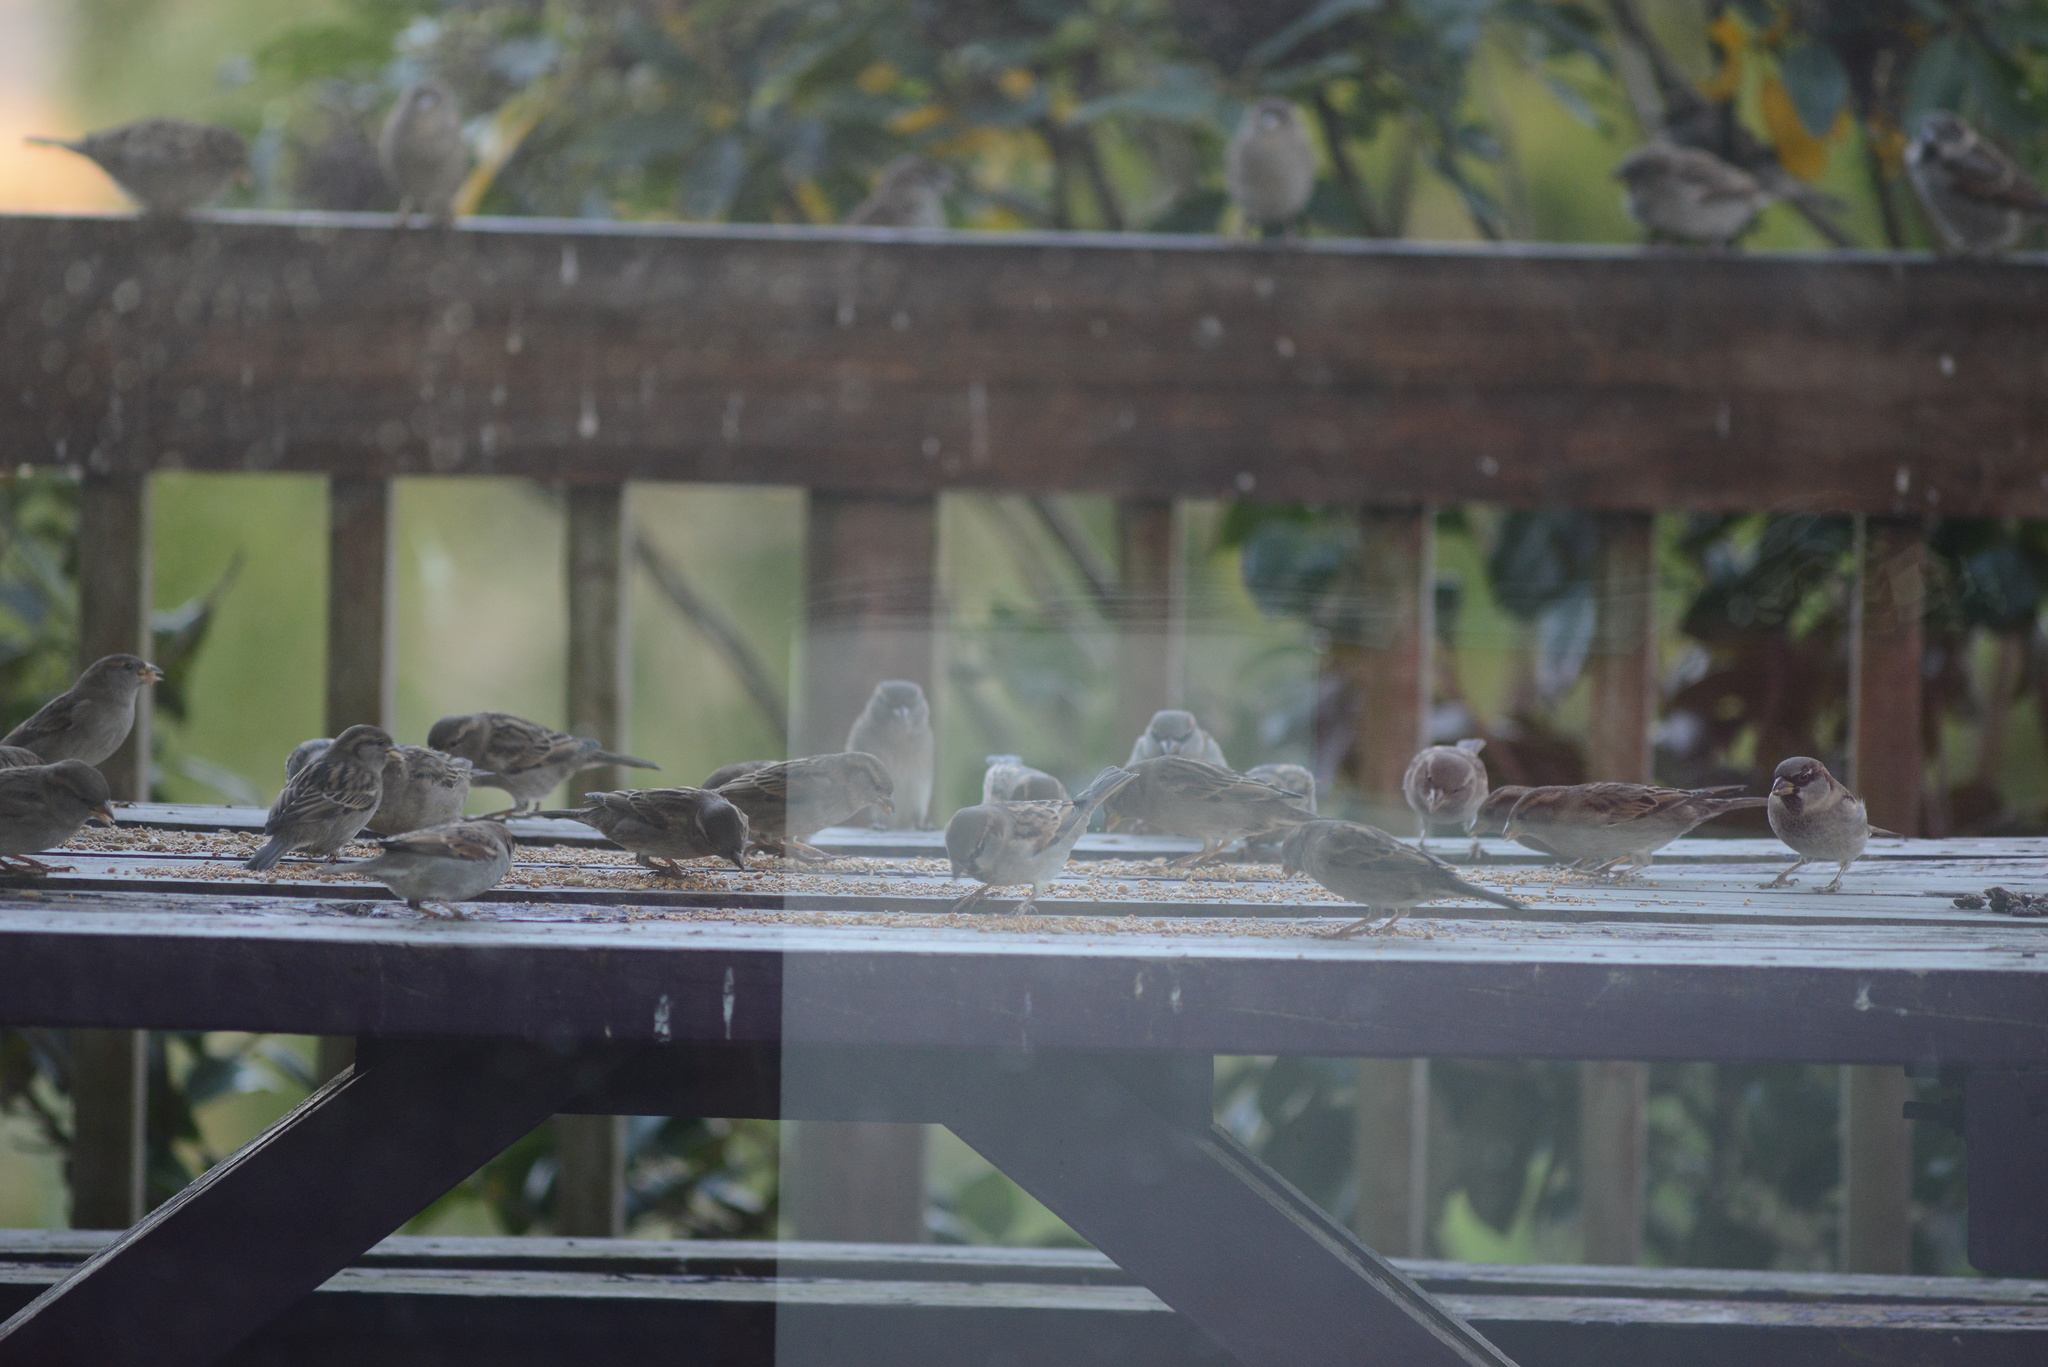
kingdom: Animalia
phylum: Chordata
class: Aves
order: Passeriformes
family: Passeridae
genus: Passer
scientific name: Passer domesticus
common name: House sparrow
